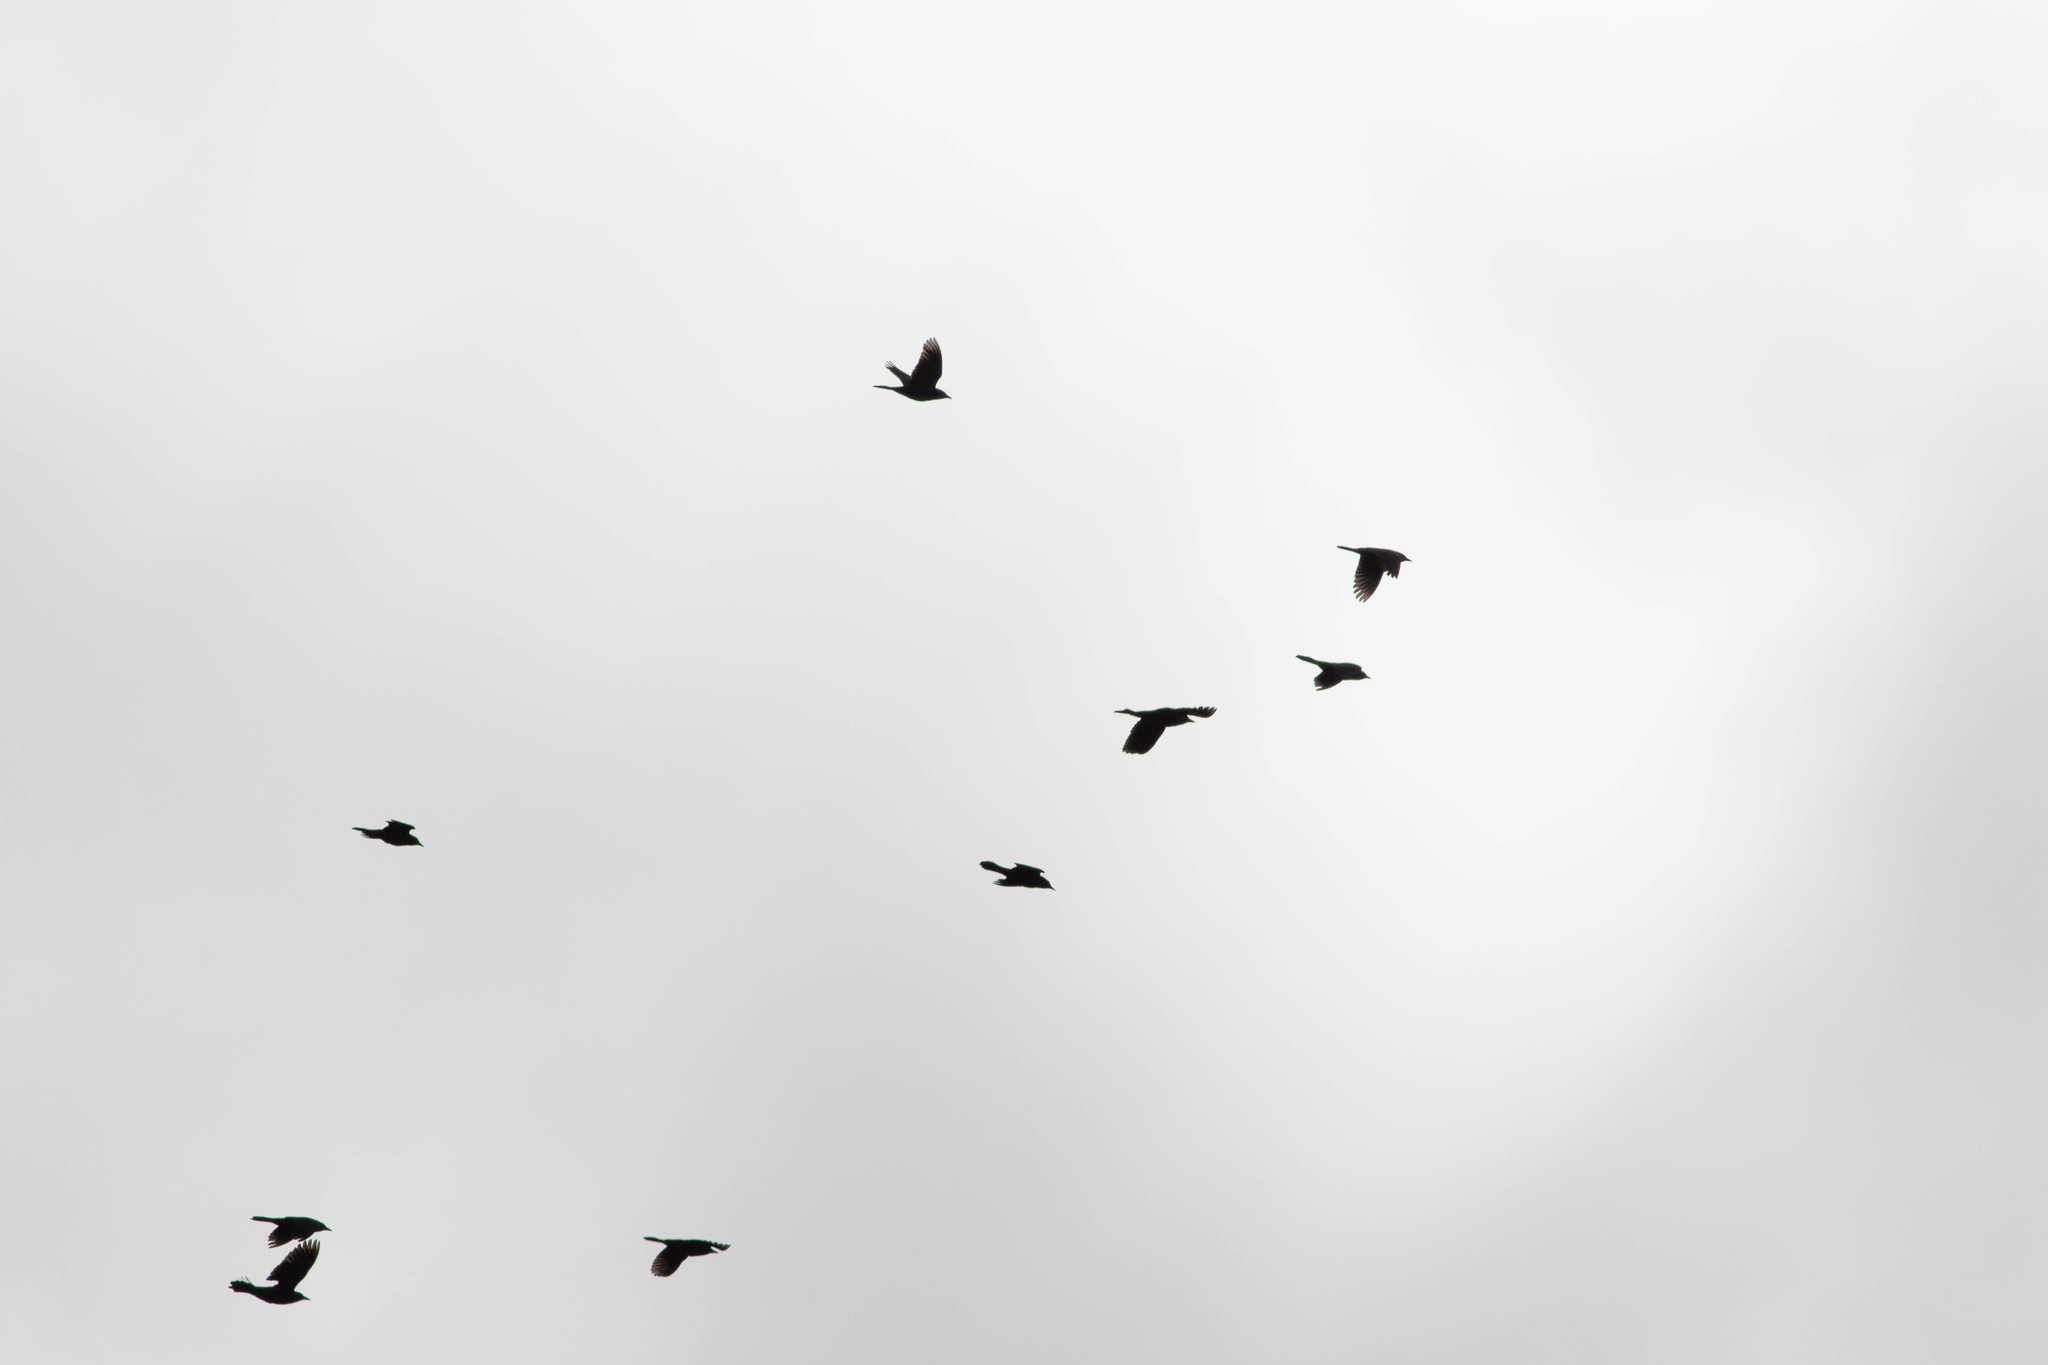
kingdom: Animalia
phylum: Chordata
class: Aves
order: Passeriformes
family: Icteridae
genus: Quiscalus
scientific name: Quiscalus quiscula
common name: Common grackle
